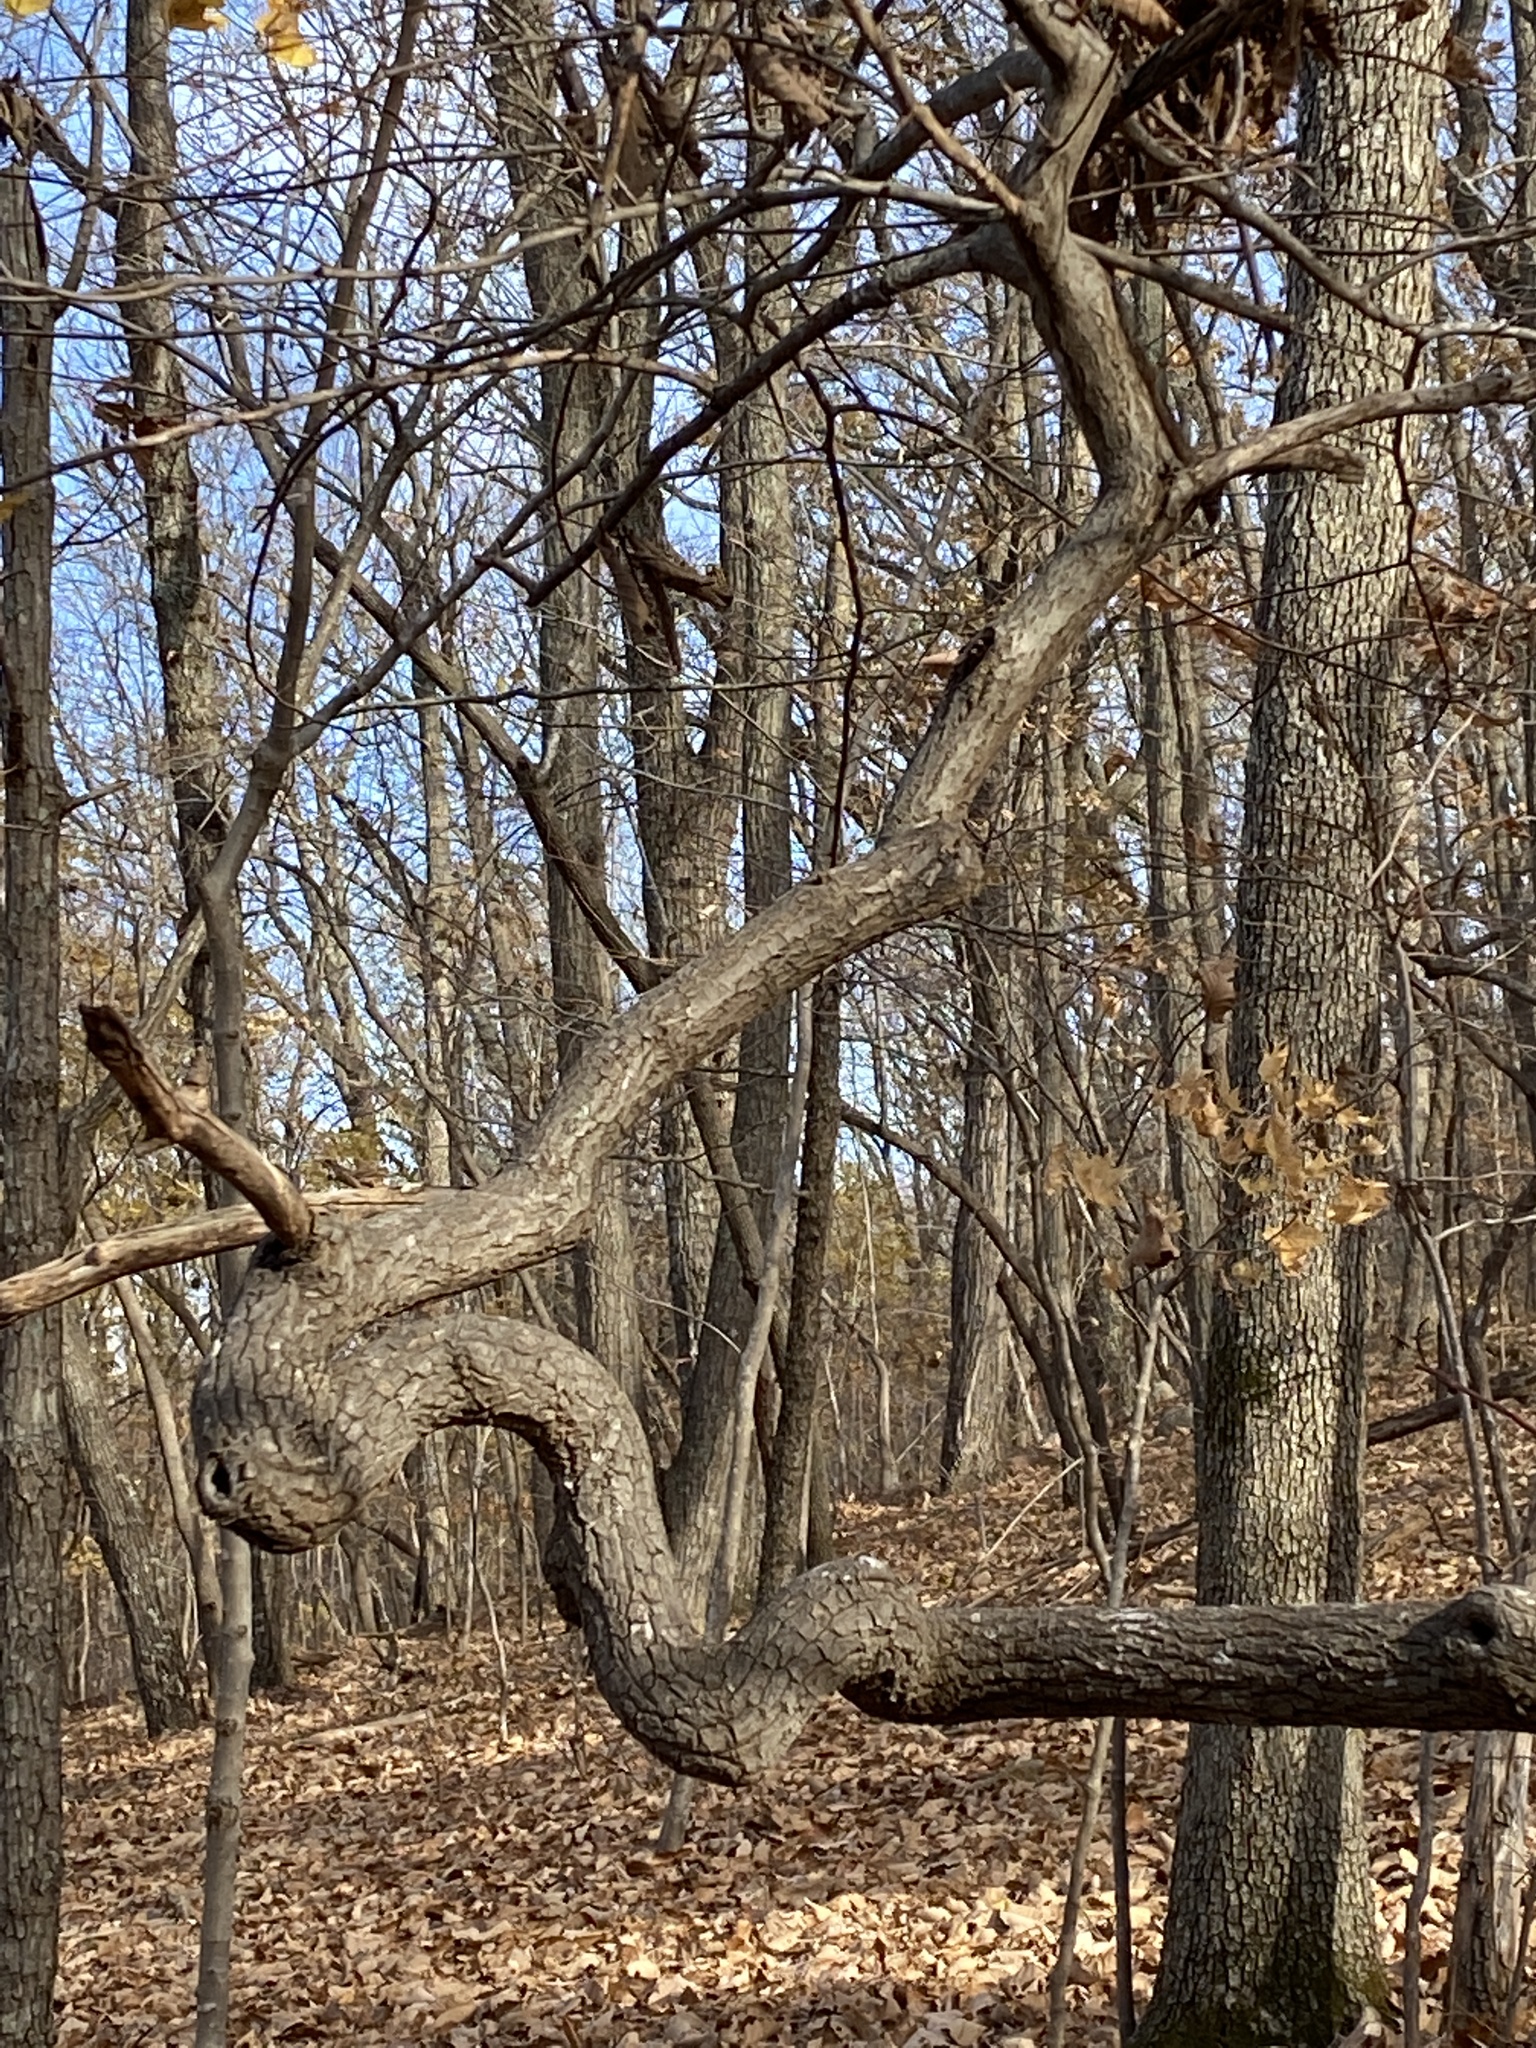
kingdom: Plantae
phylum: Tracheophyta
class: Magnoliopsida
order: Ericales
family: Ericaceae
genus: Oxydendrum
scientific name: Oxydendrum arboreum
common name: Sourwood
